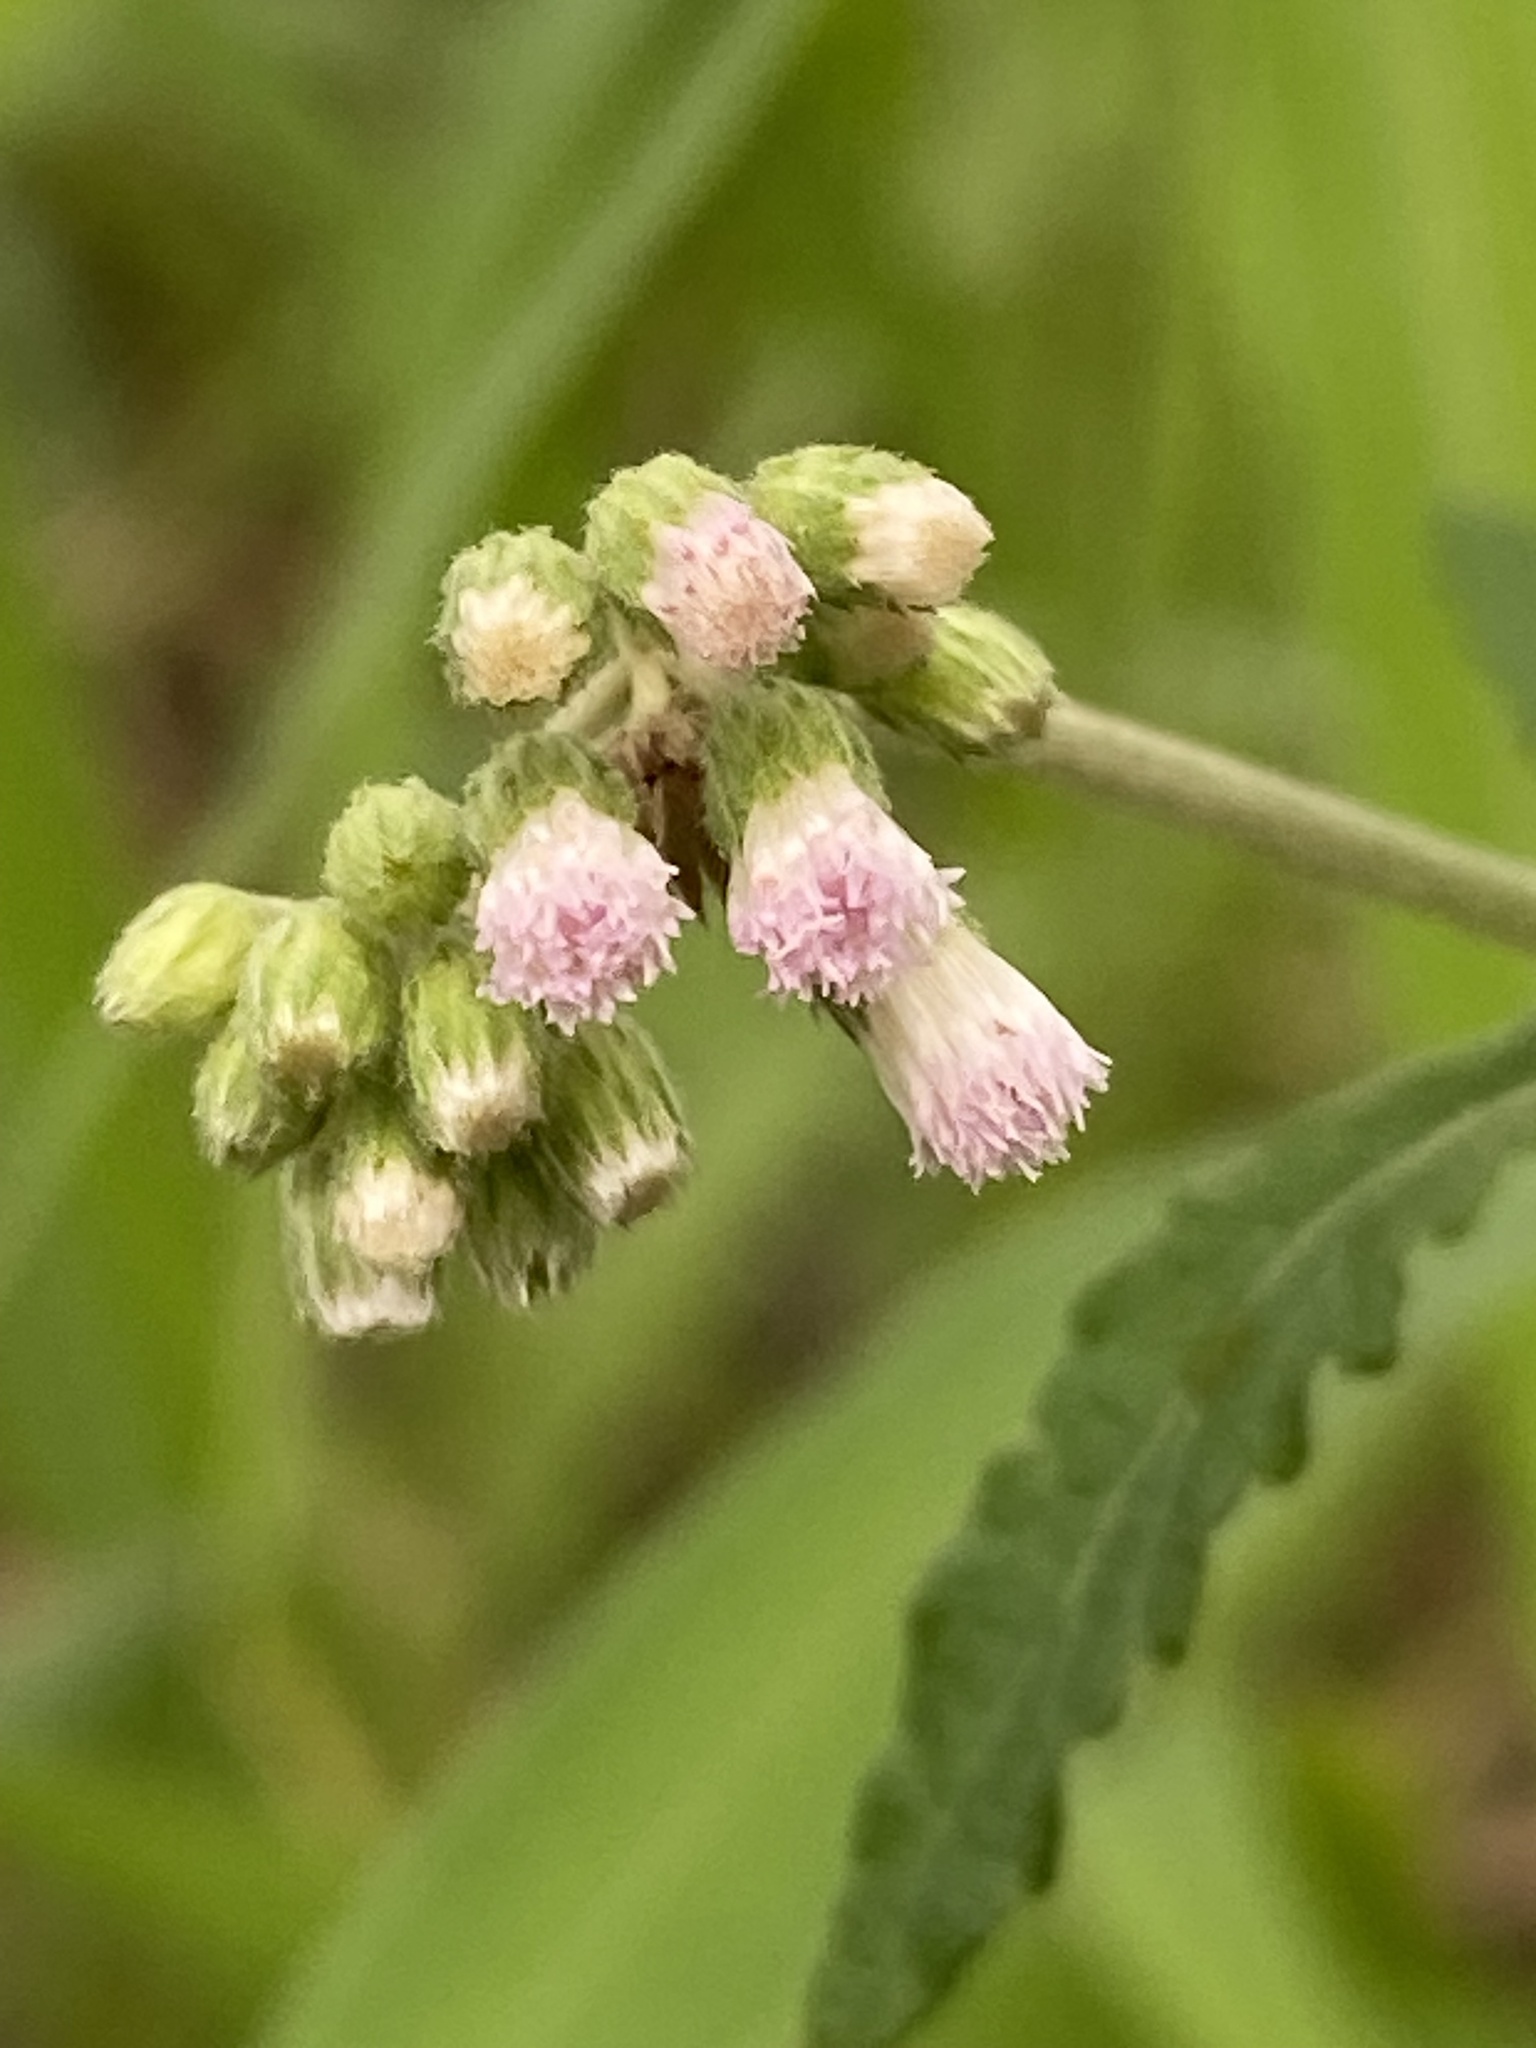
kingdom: Plantae
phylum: Tracheophyta
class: Magnoliopsida
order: Asterales
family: Asteraceae
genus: Cyanthillium
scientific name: Cyanthillium cinereum
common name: Little ironweed
